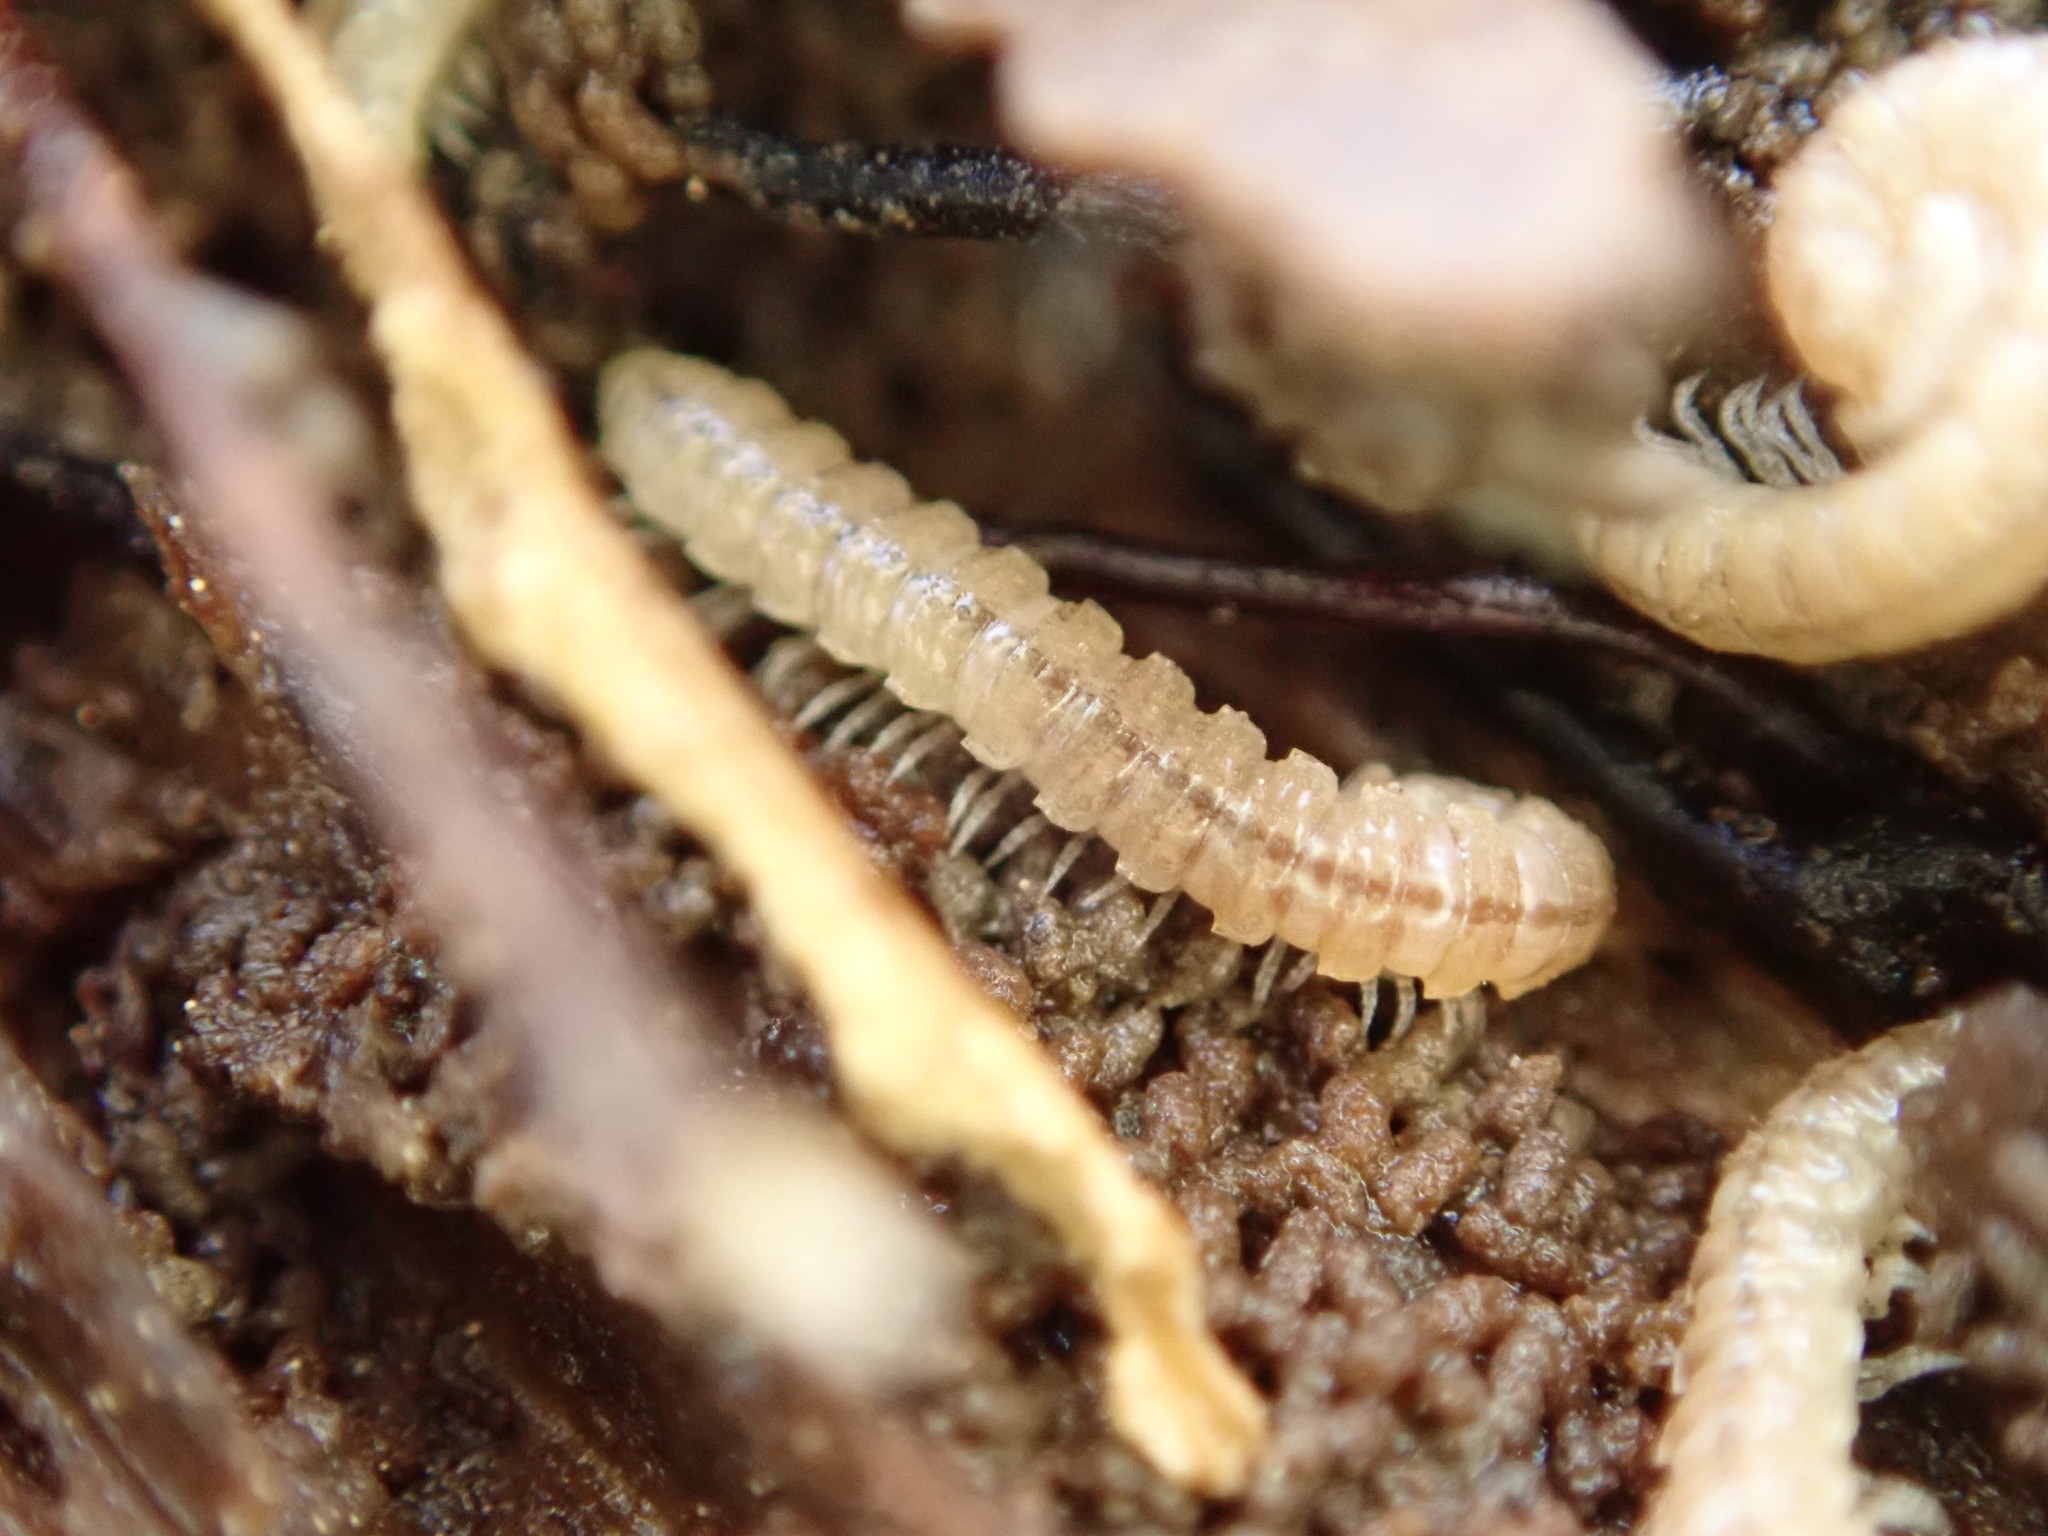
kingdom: Animalia
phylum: Arthropoda
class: Diplopoda
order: Polydesmida
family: Paradoxosomatidae
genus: Oxidus
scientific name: Oxidus gracilis
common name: Greenhouse millipede
